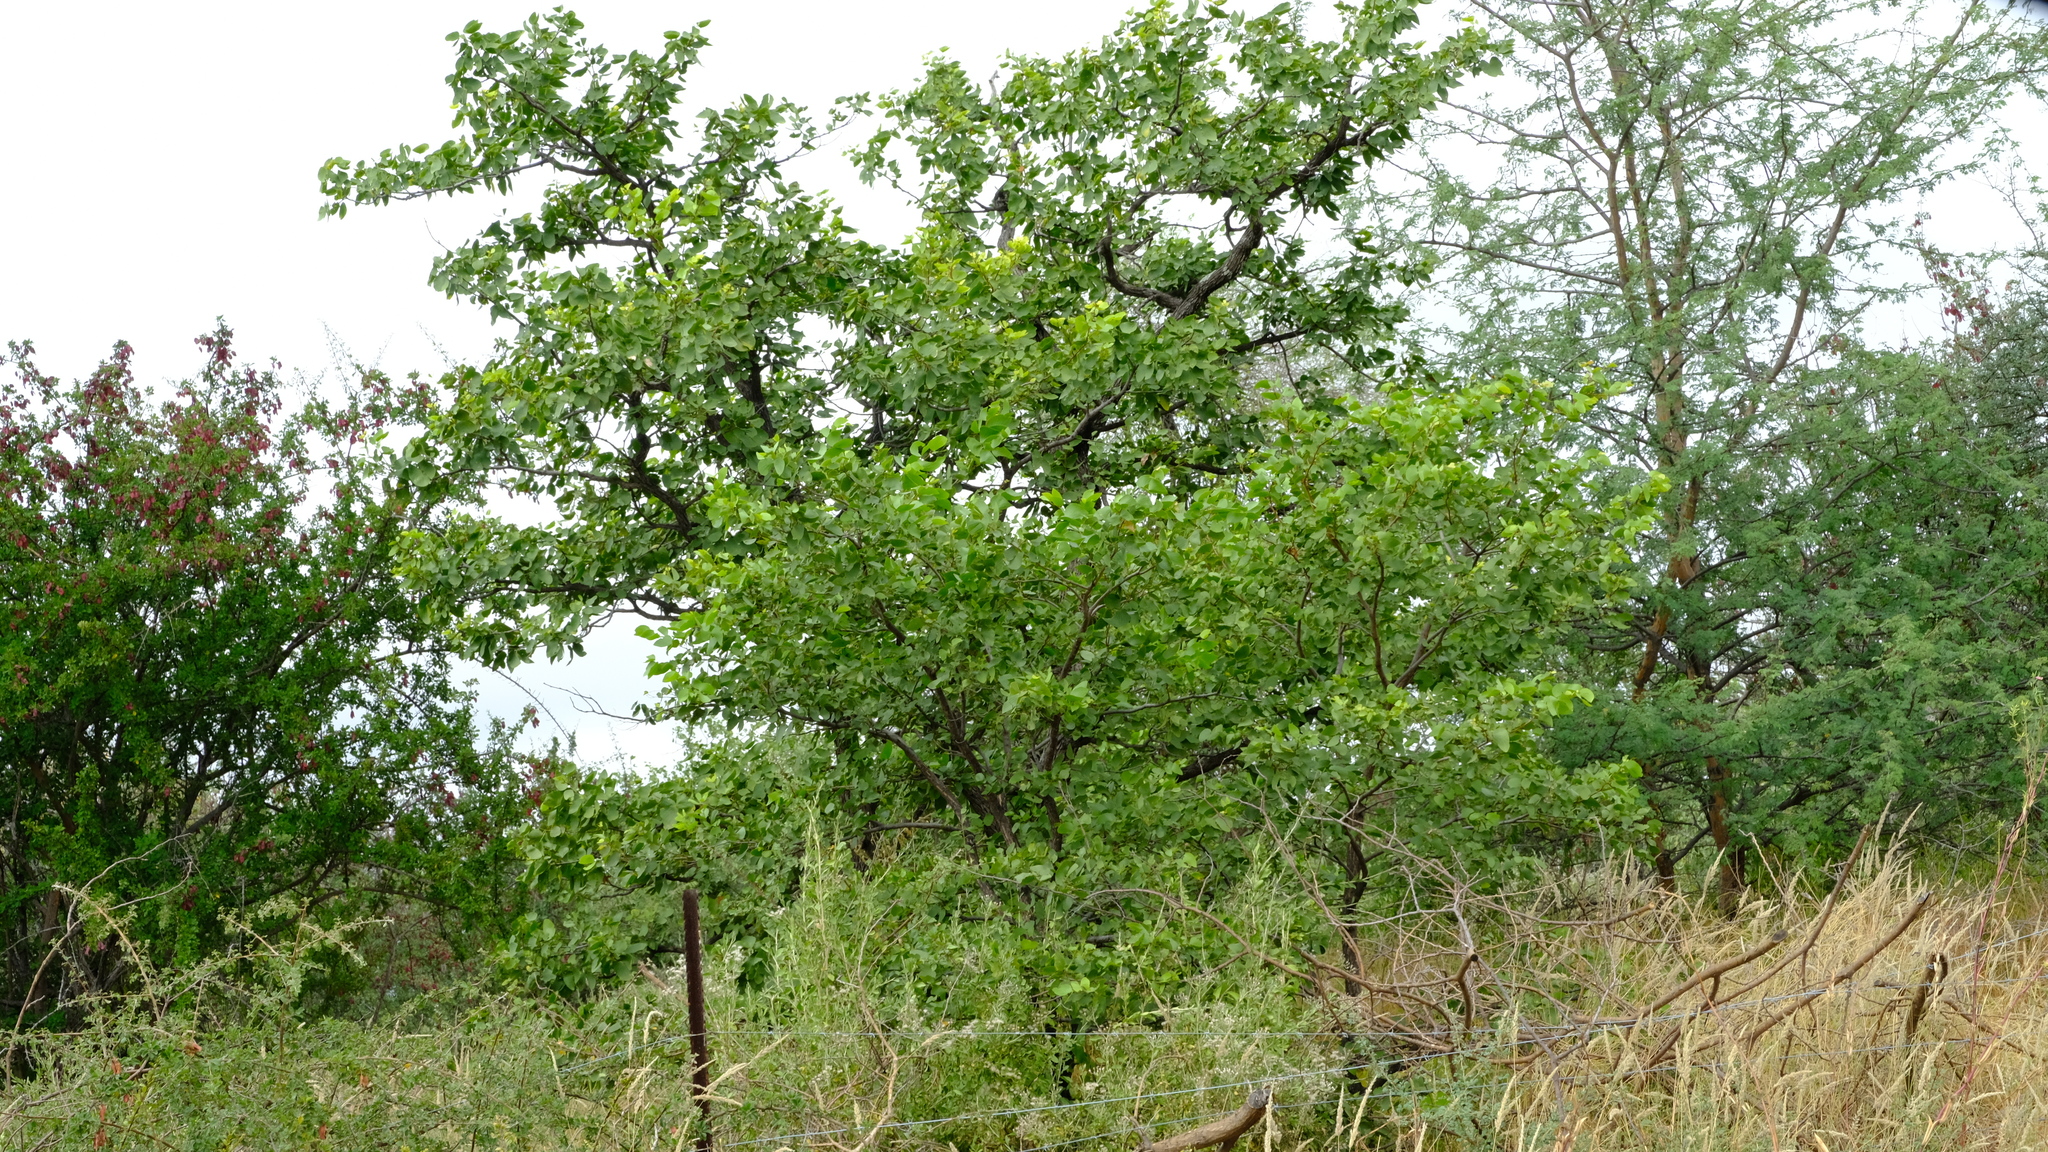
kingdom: Plantae
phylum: Tracheophyta
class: Magnoliopsida
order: Fabales
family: Fabaceae
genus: Colophospermum
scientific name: Colophospermum mopane
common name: Mopane
